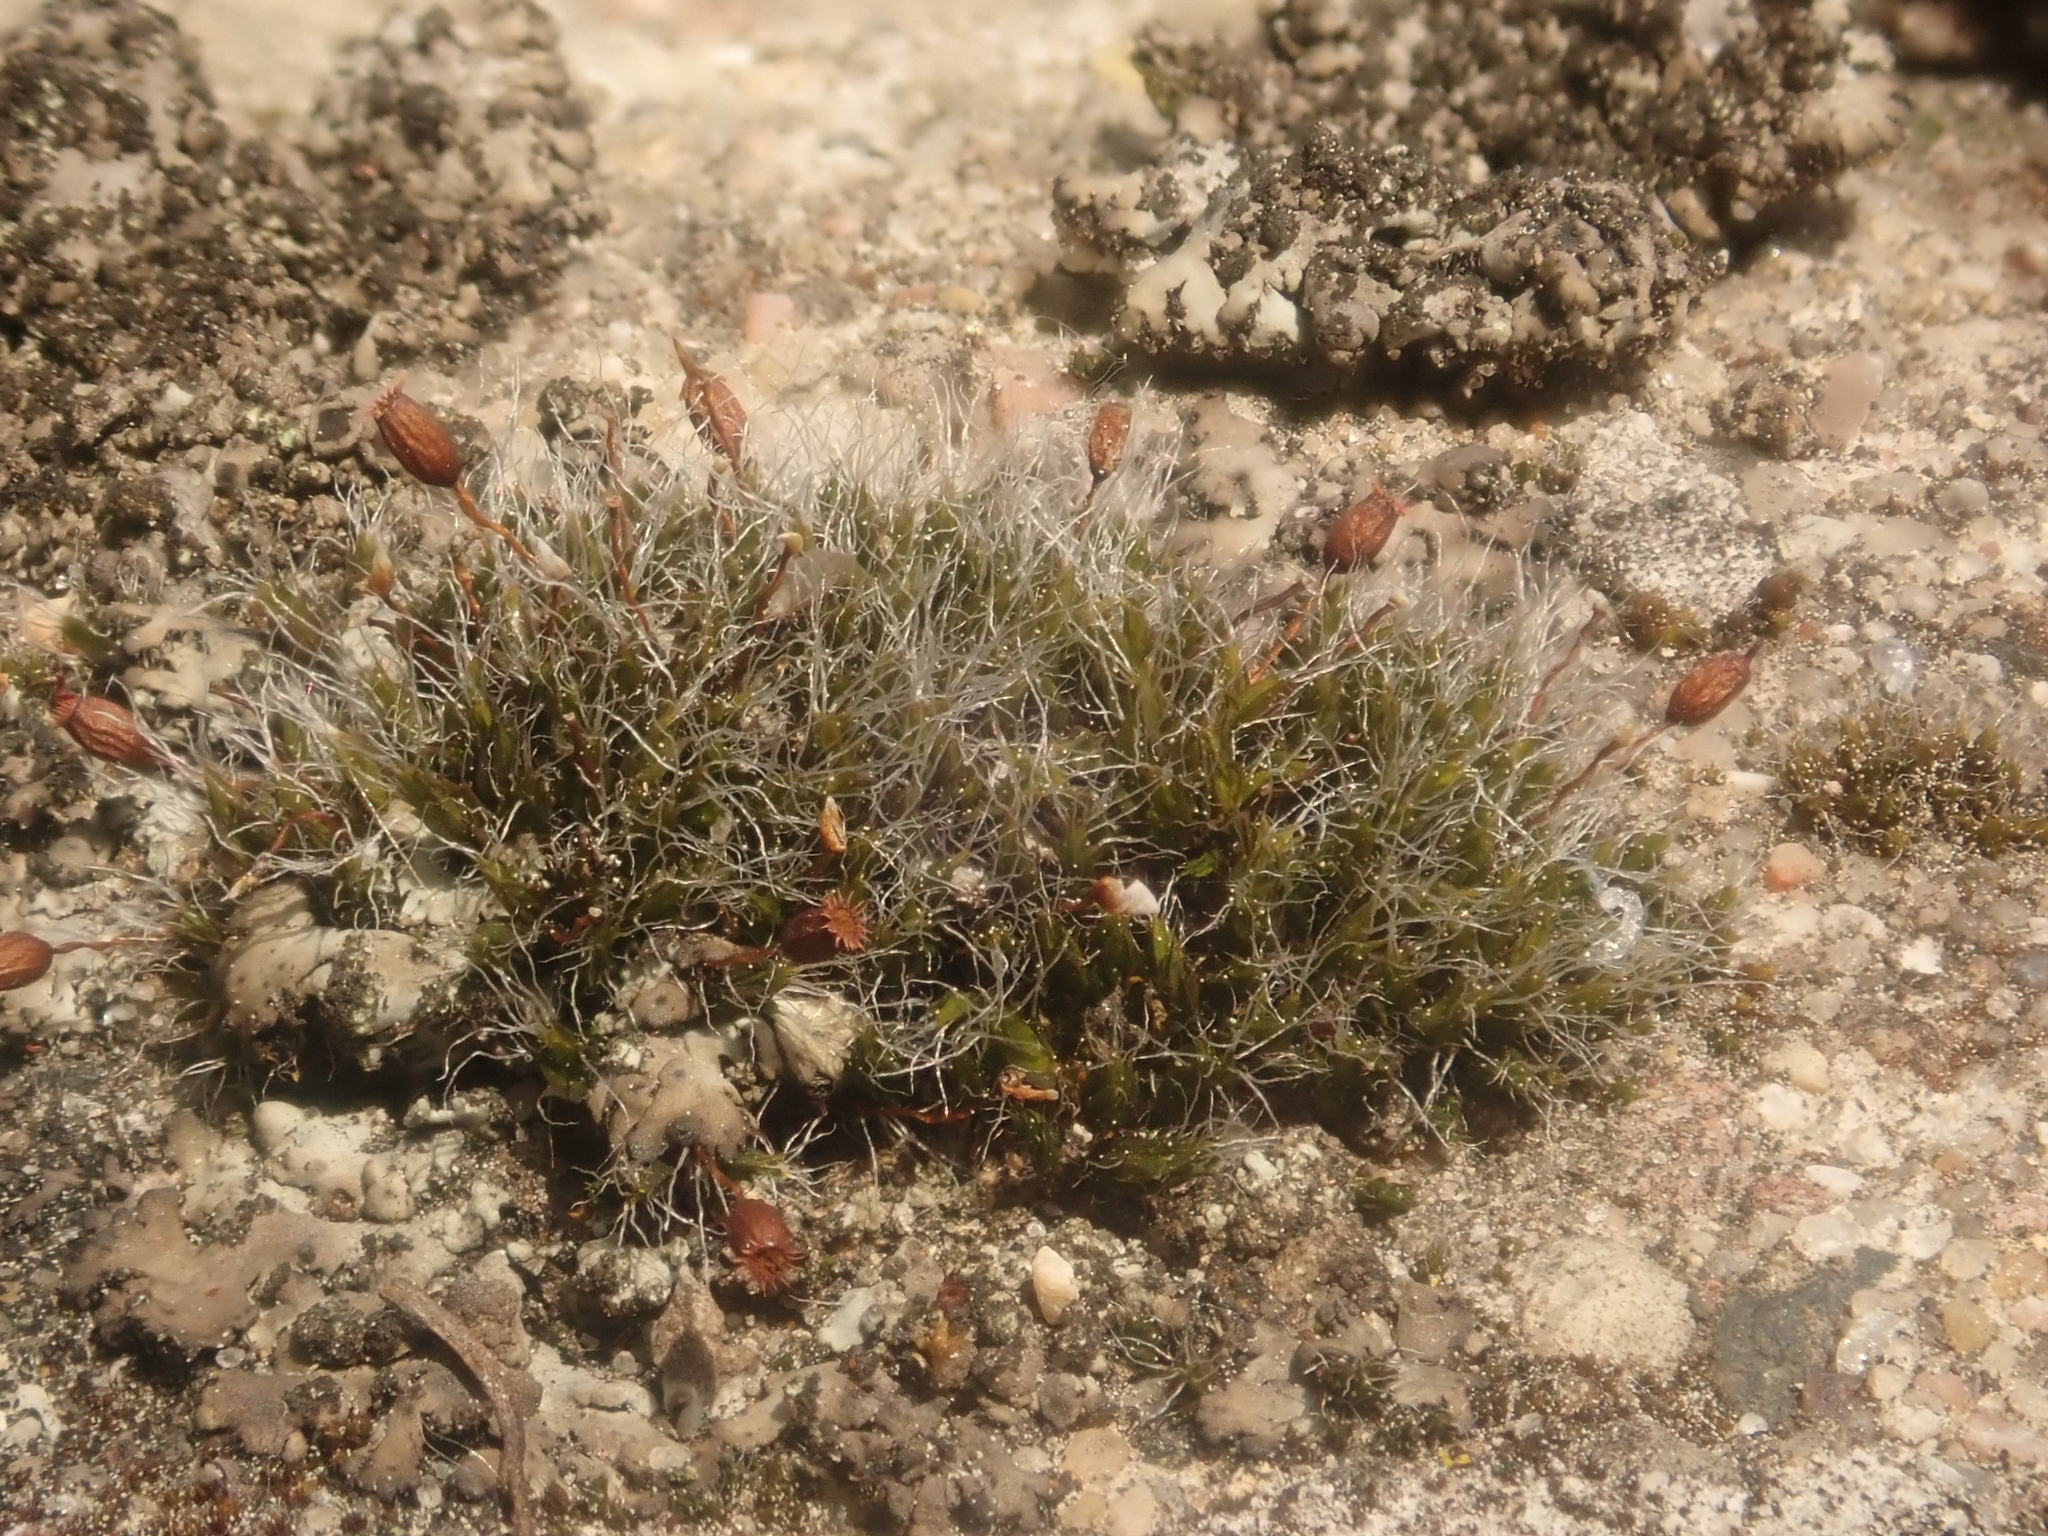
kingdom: Plantae
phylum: Bryophyta
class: Bryopsida
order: Grimmiales
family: Grimmiaceae
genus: Grimmia
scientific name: Grimmia pulvinata
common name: Grey-cushioned grimmia
